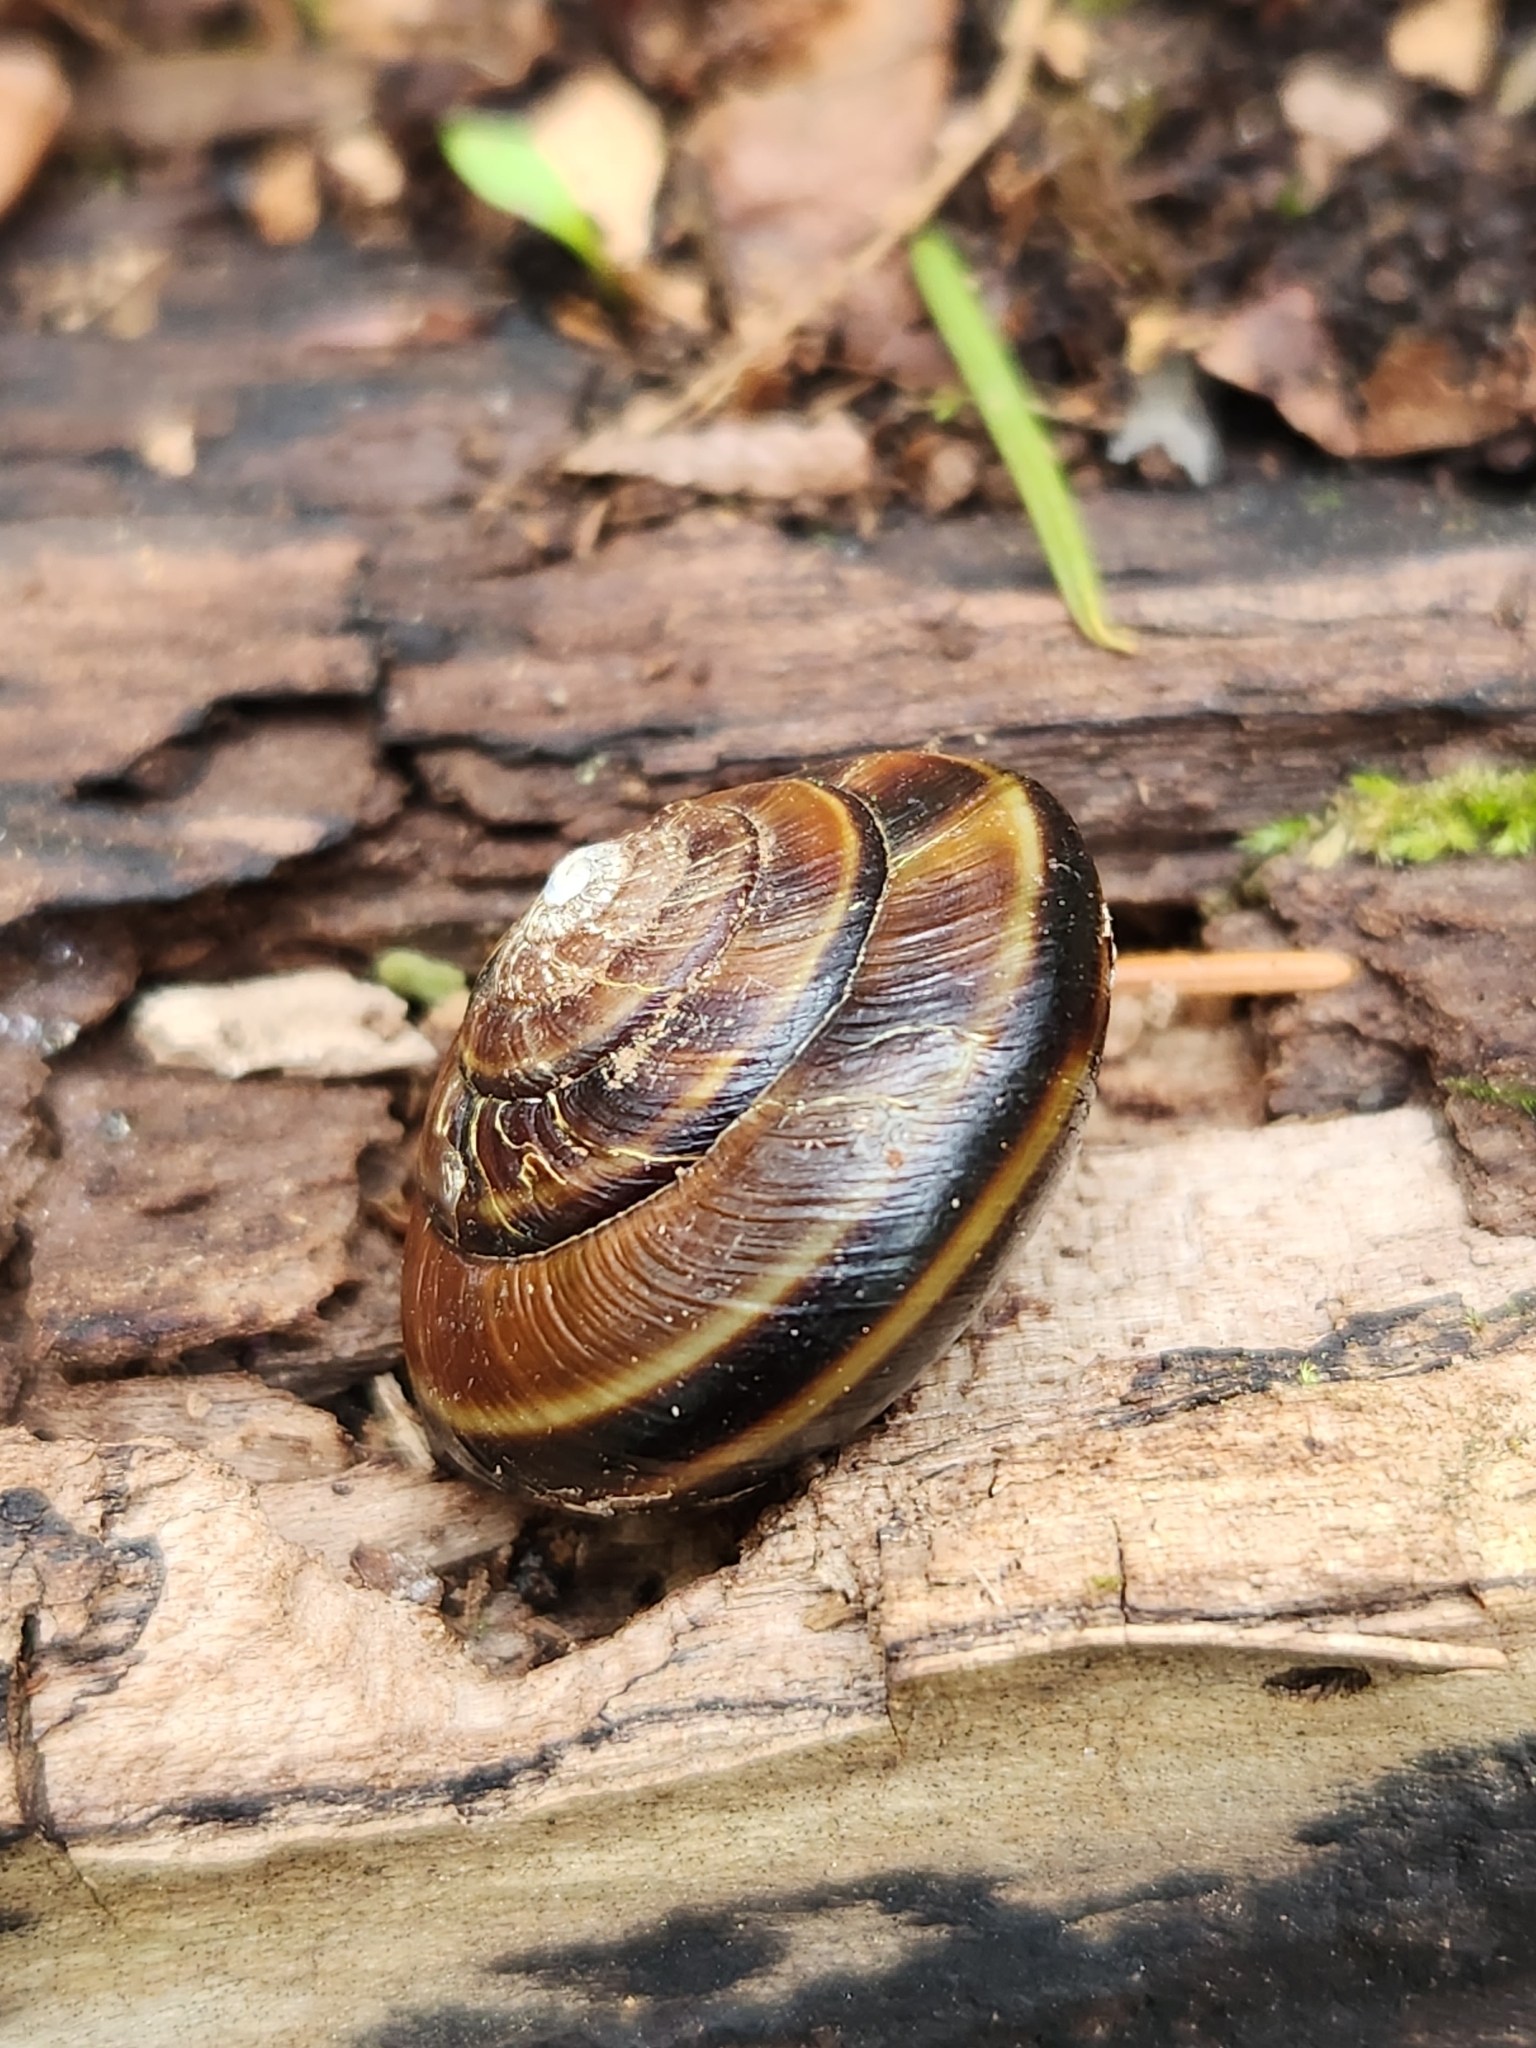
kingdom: Animalia
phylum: Mollusca
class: Gastropoda
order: Stylommatophora
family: Xanthonychidae
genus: Monadenia
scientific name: Monadenia fidelis
